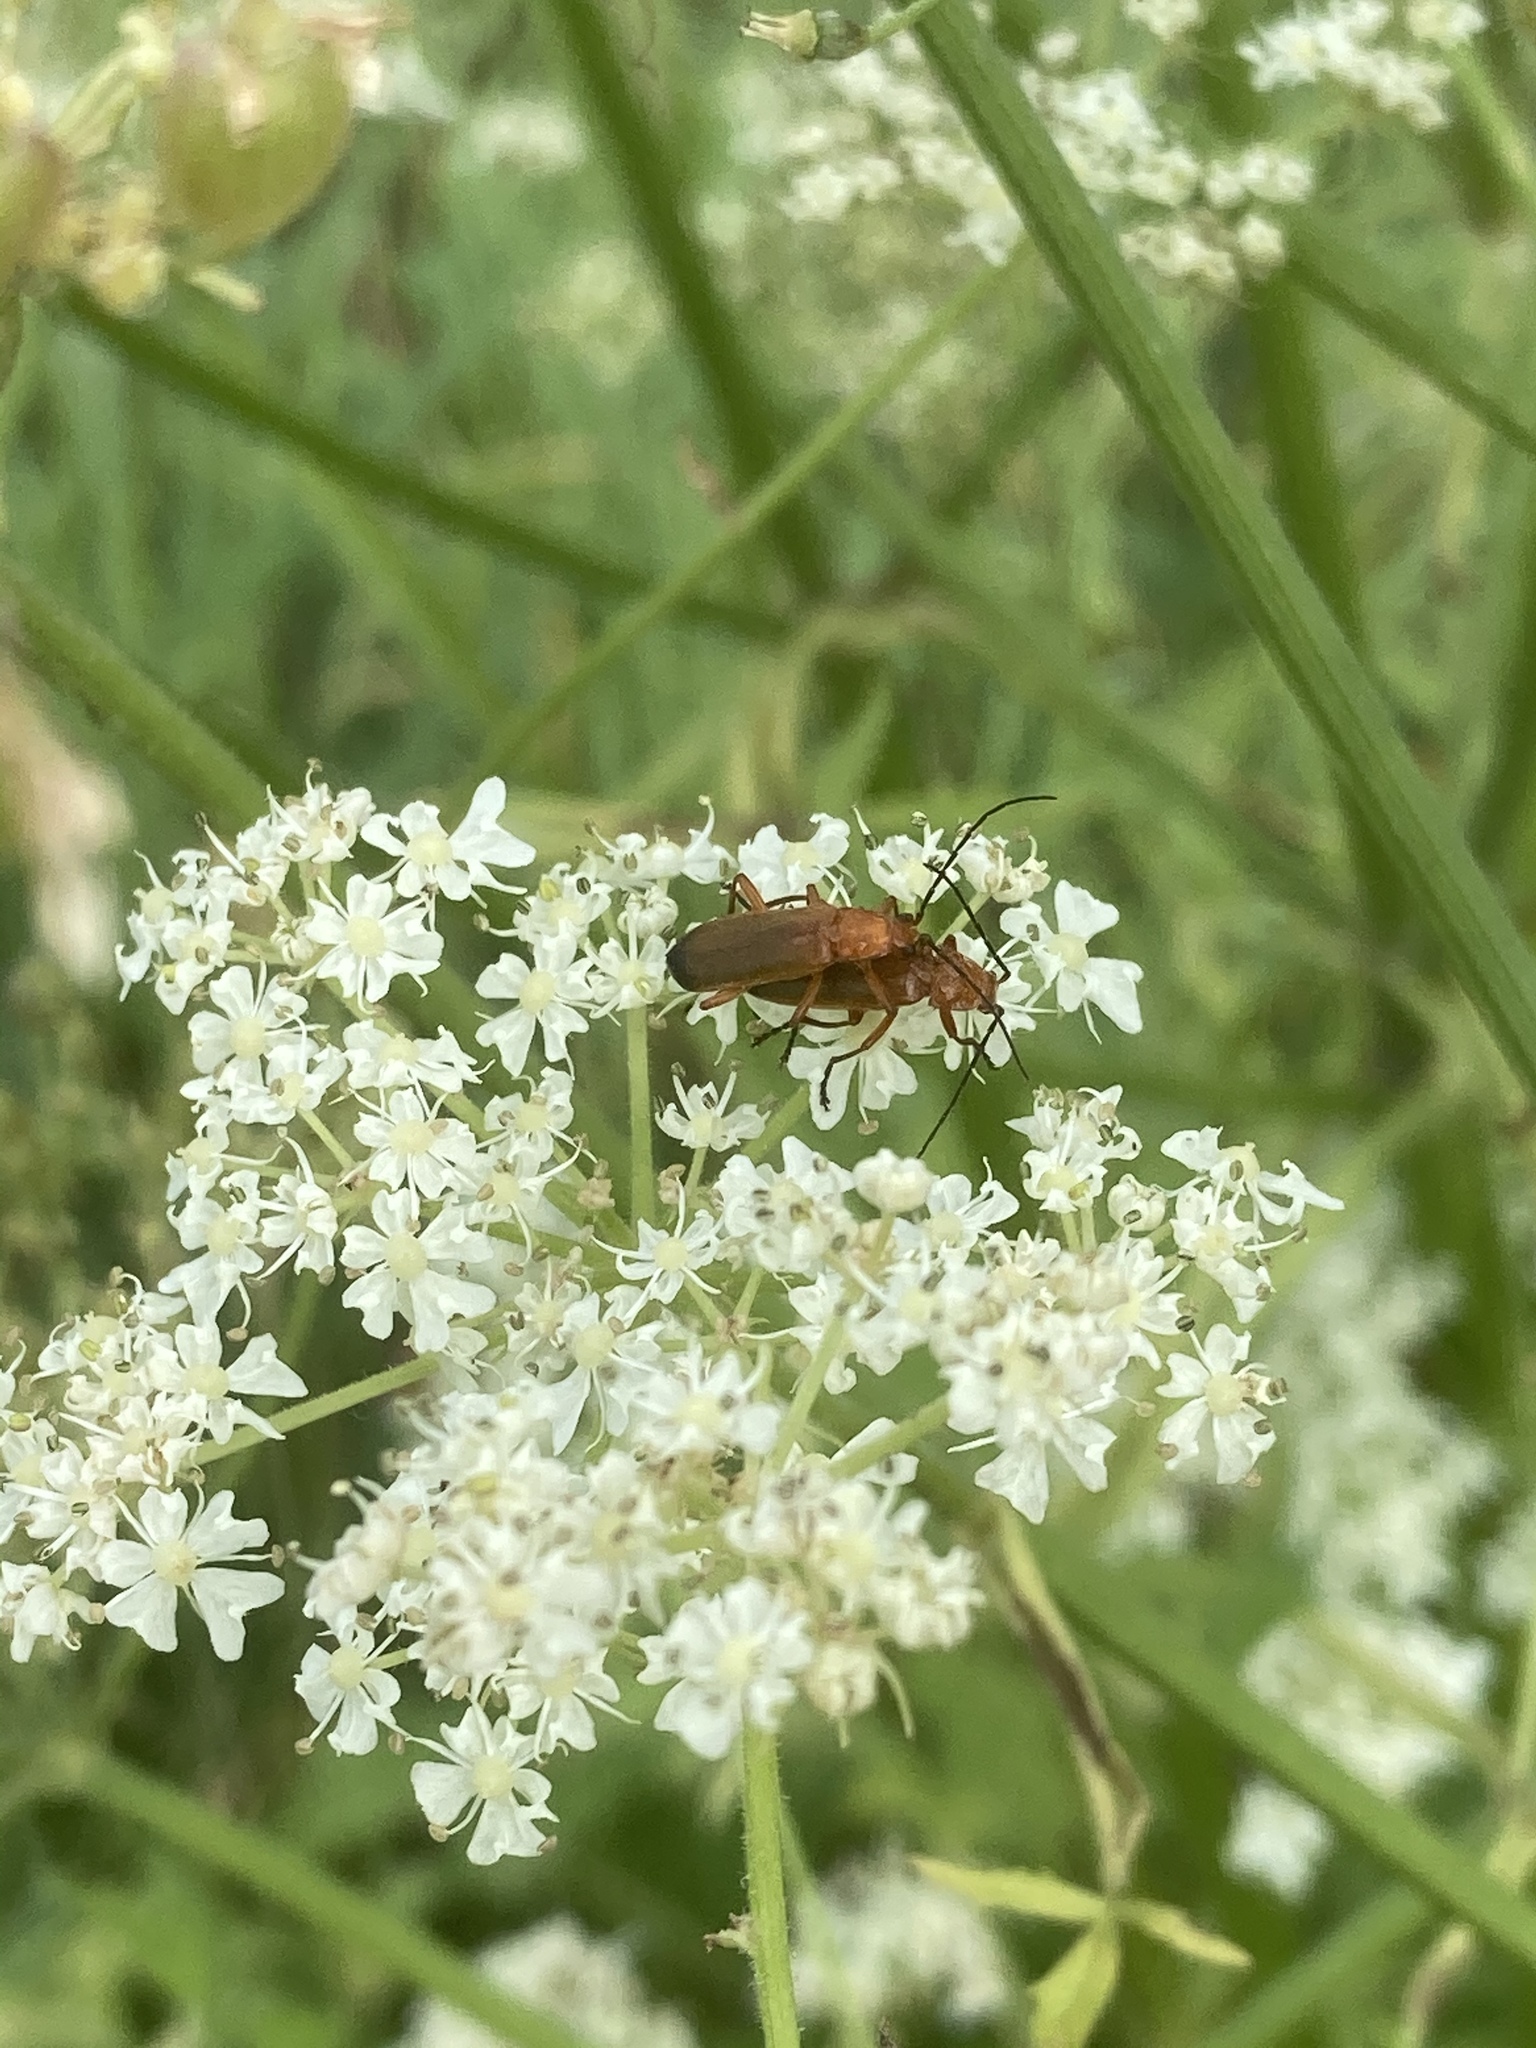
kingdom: Animalia
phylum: Arthropoda
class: Insecta
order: Coleoptera
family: Cantharidae
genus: Rhagonycha
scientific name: Rhagonycha fulva
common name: Common red soldier beetle
